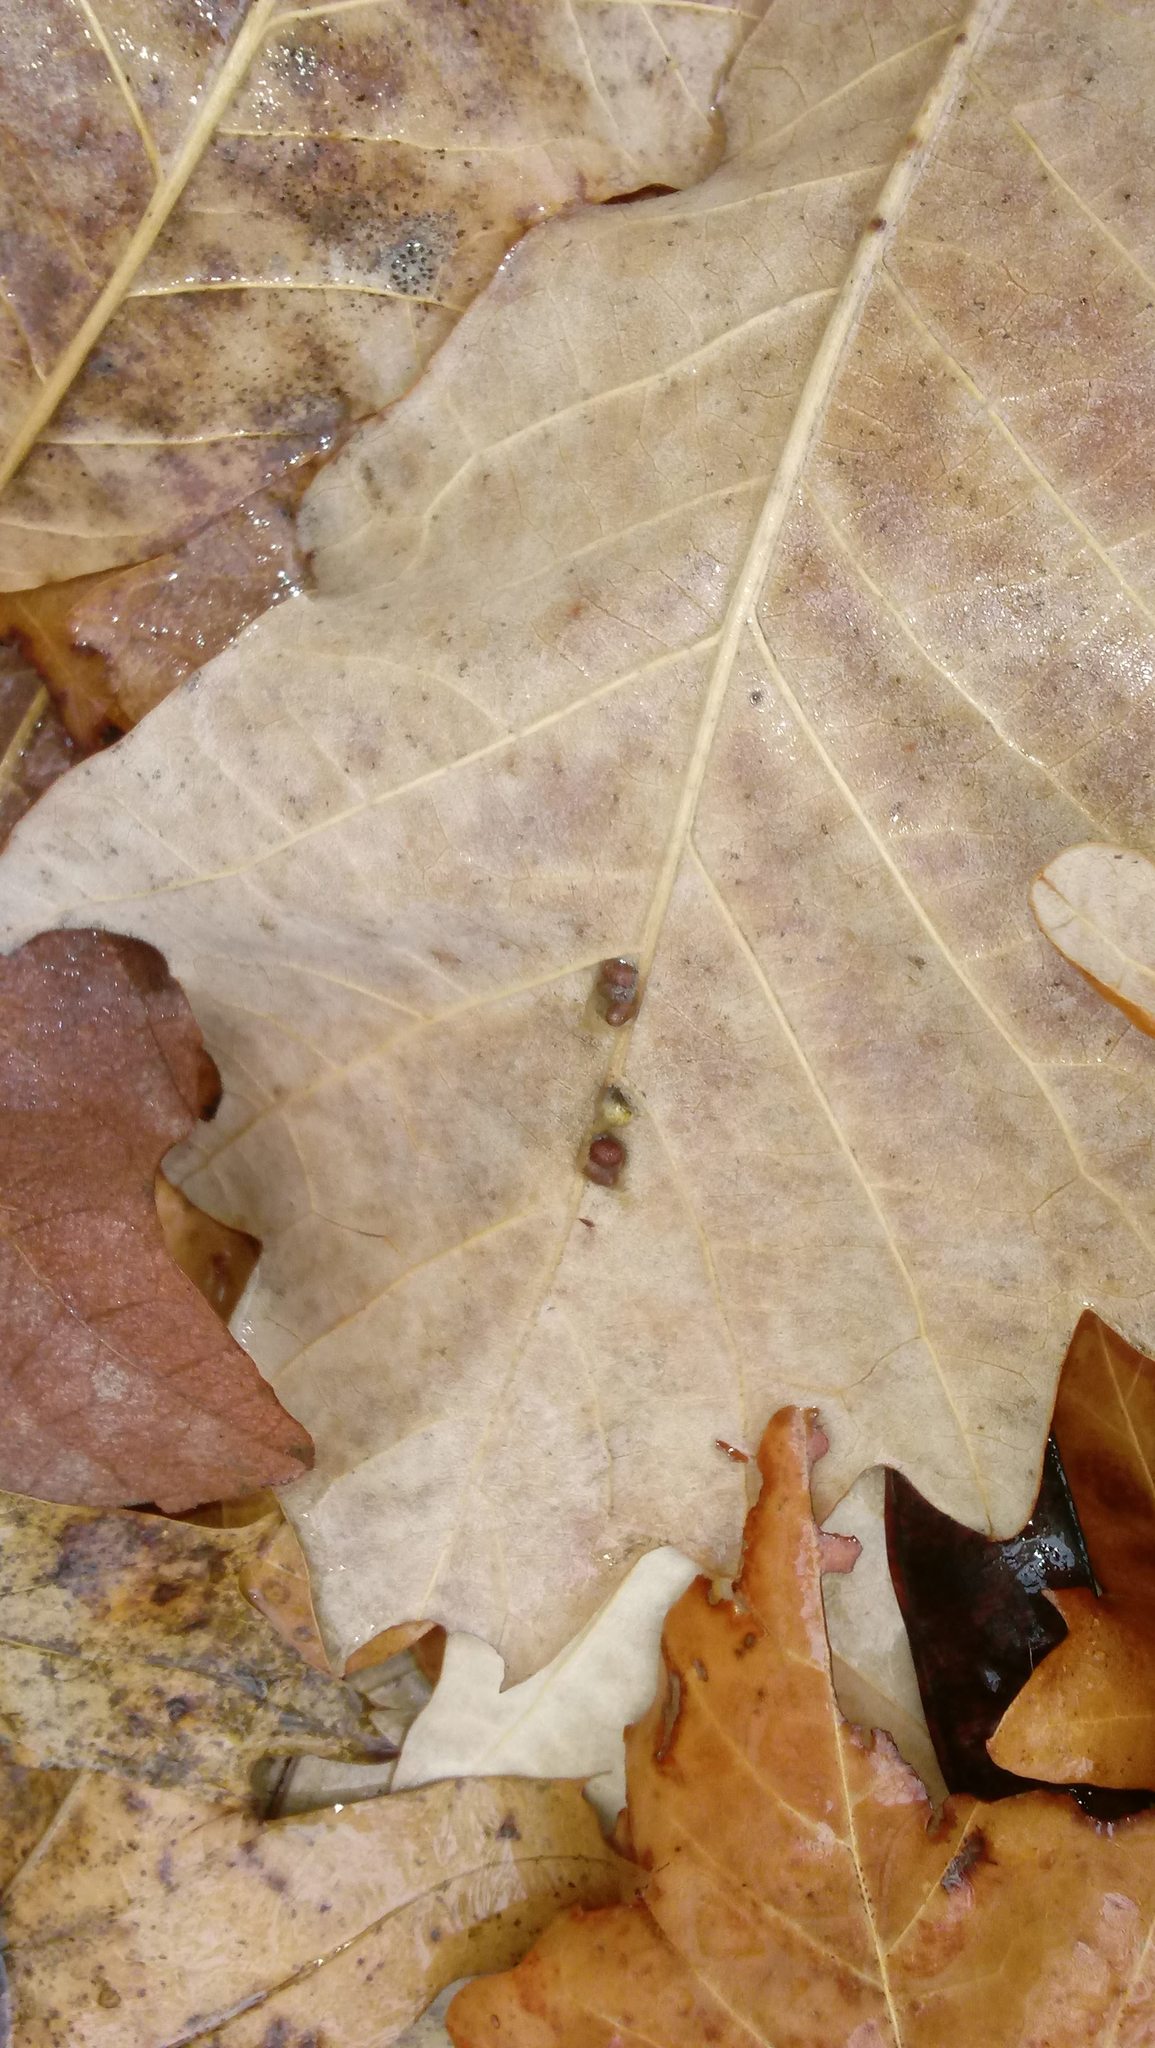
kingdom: Animalia
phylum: Arthropoda
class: Insecta
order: Hymenoptera
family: Cynipidae
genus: Andricus
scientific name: Andricus Druon ignotum
